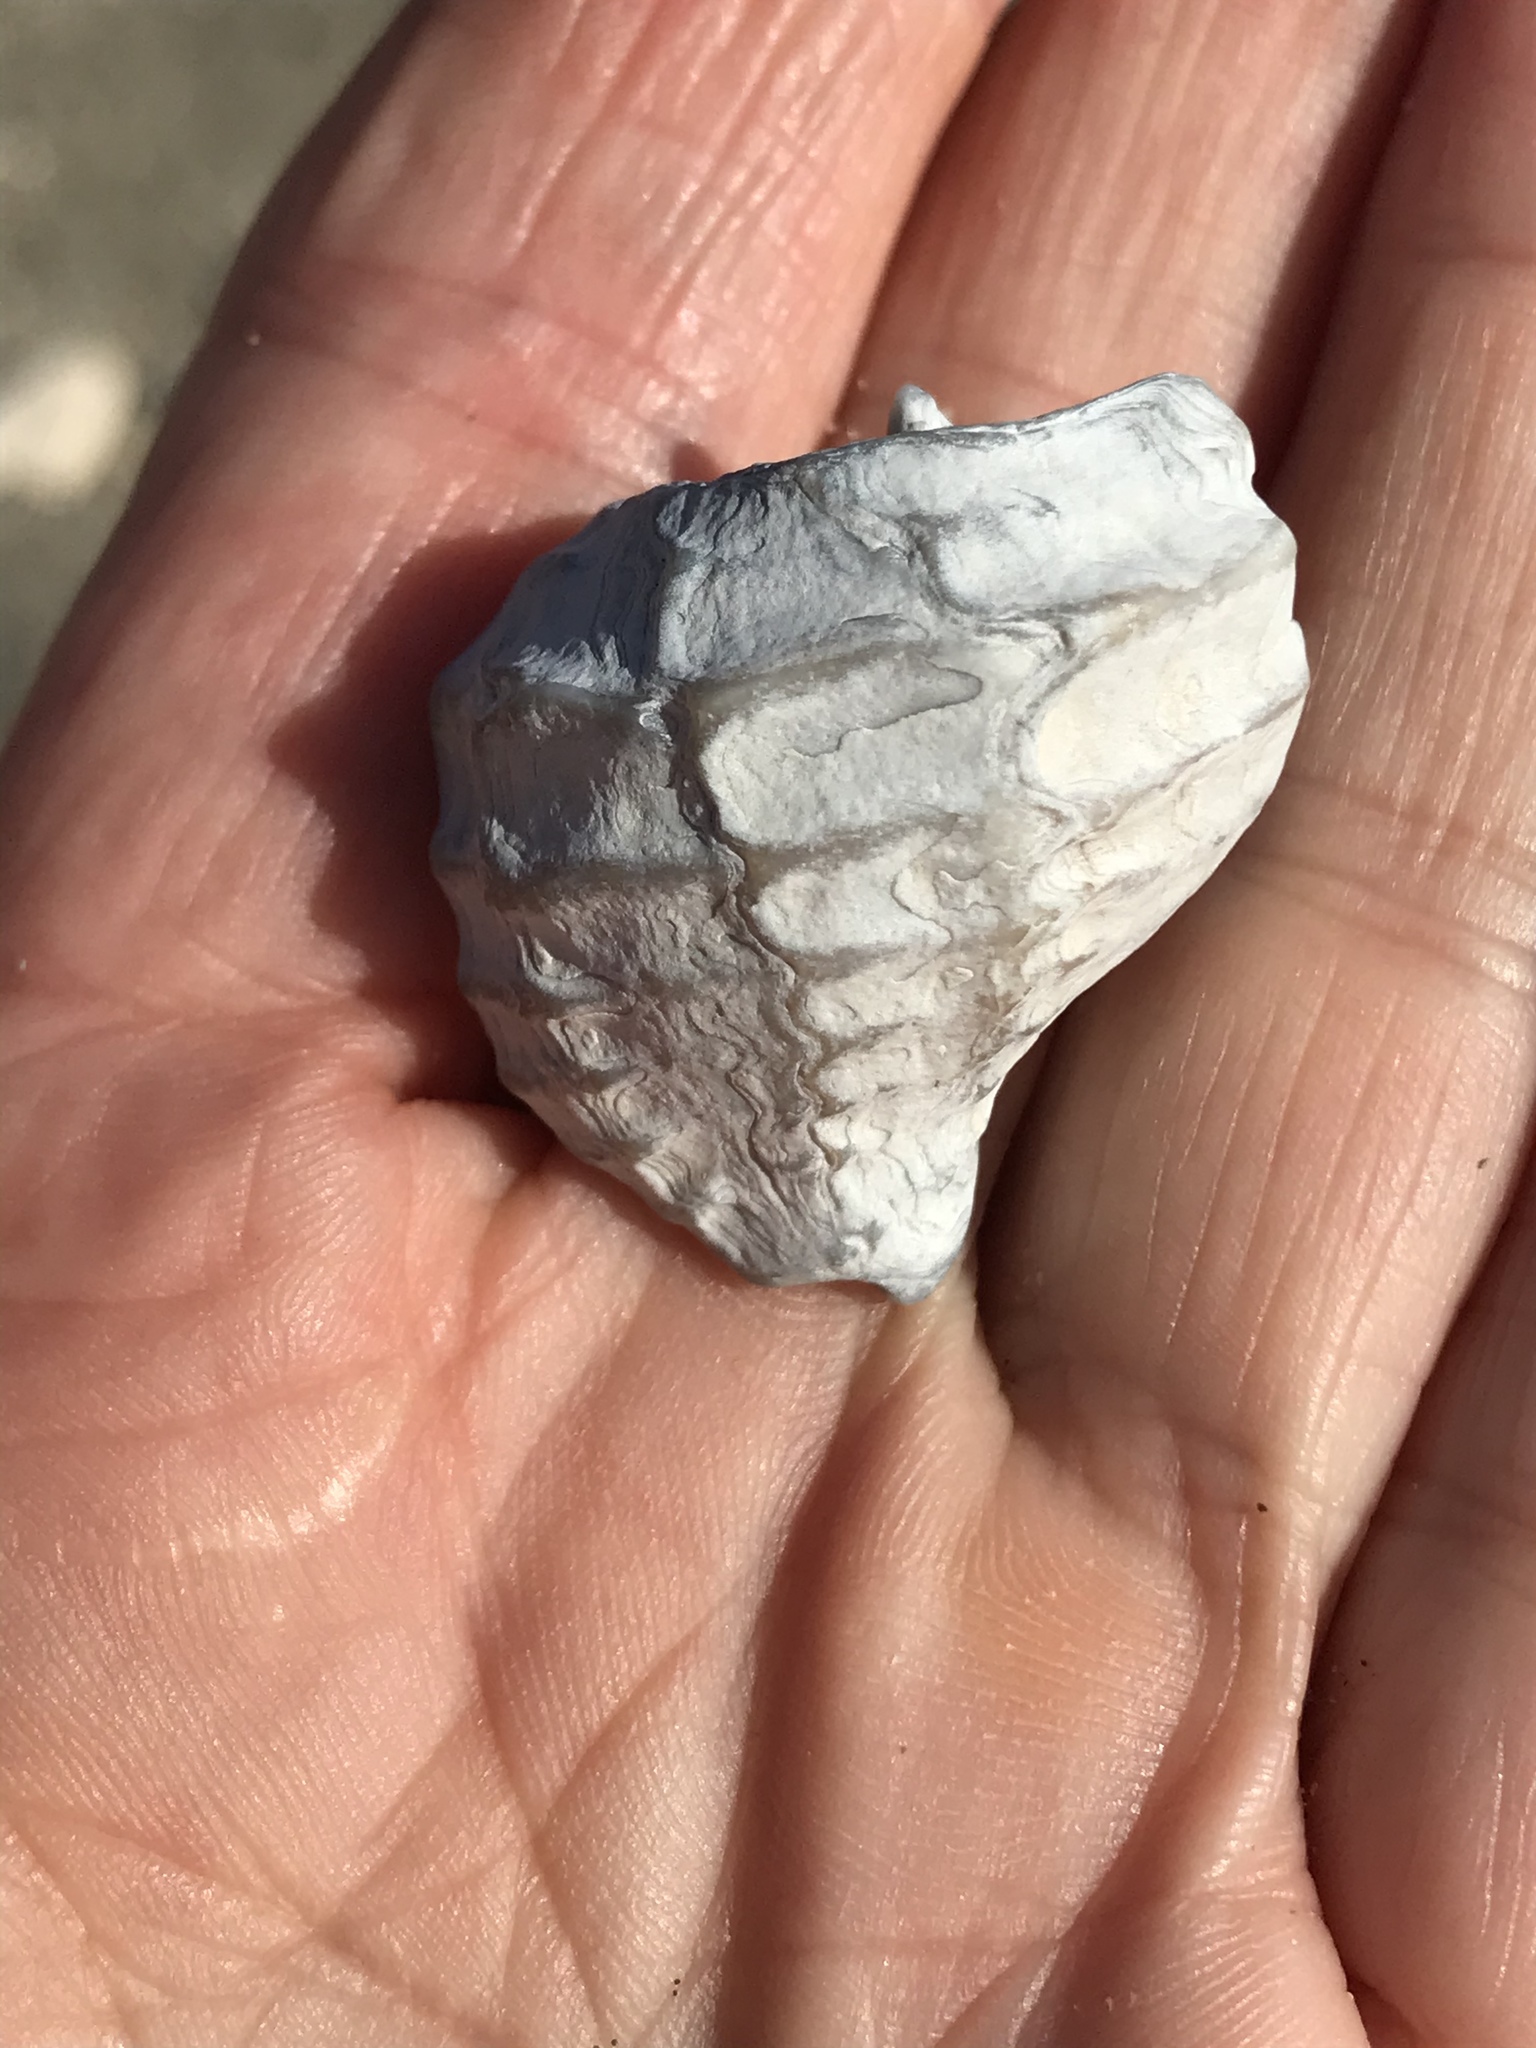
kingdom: Animalia
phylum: Mollusca
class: Gastropoda
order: Neogastropoda
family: Muricidae
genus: Nucella
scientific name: Nucella lamellosa
